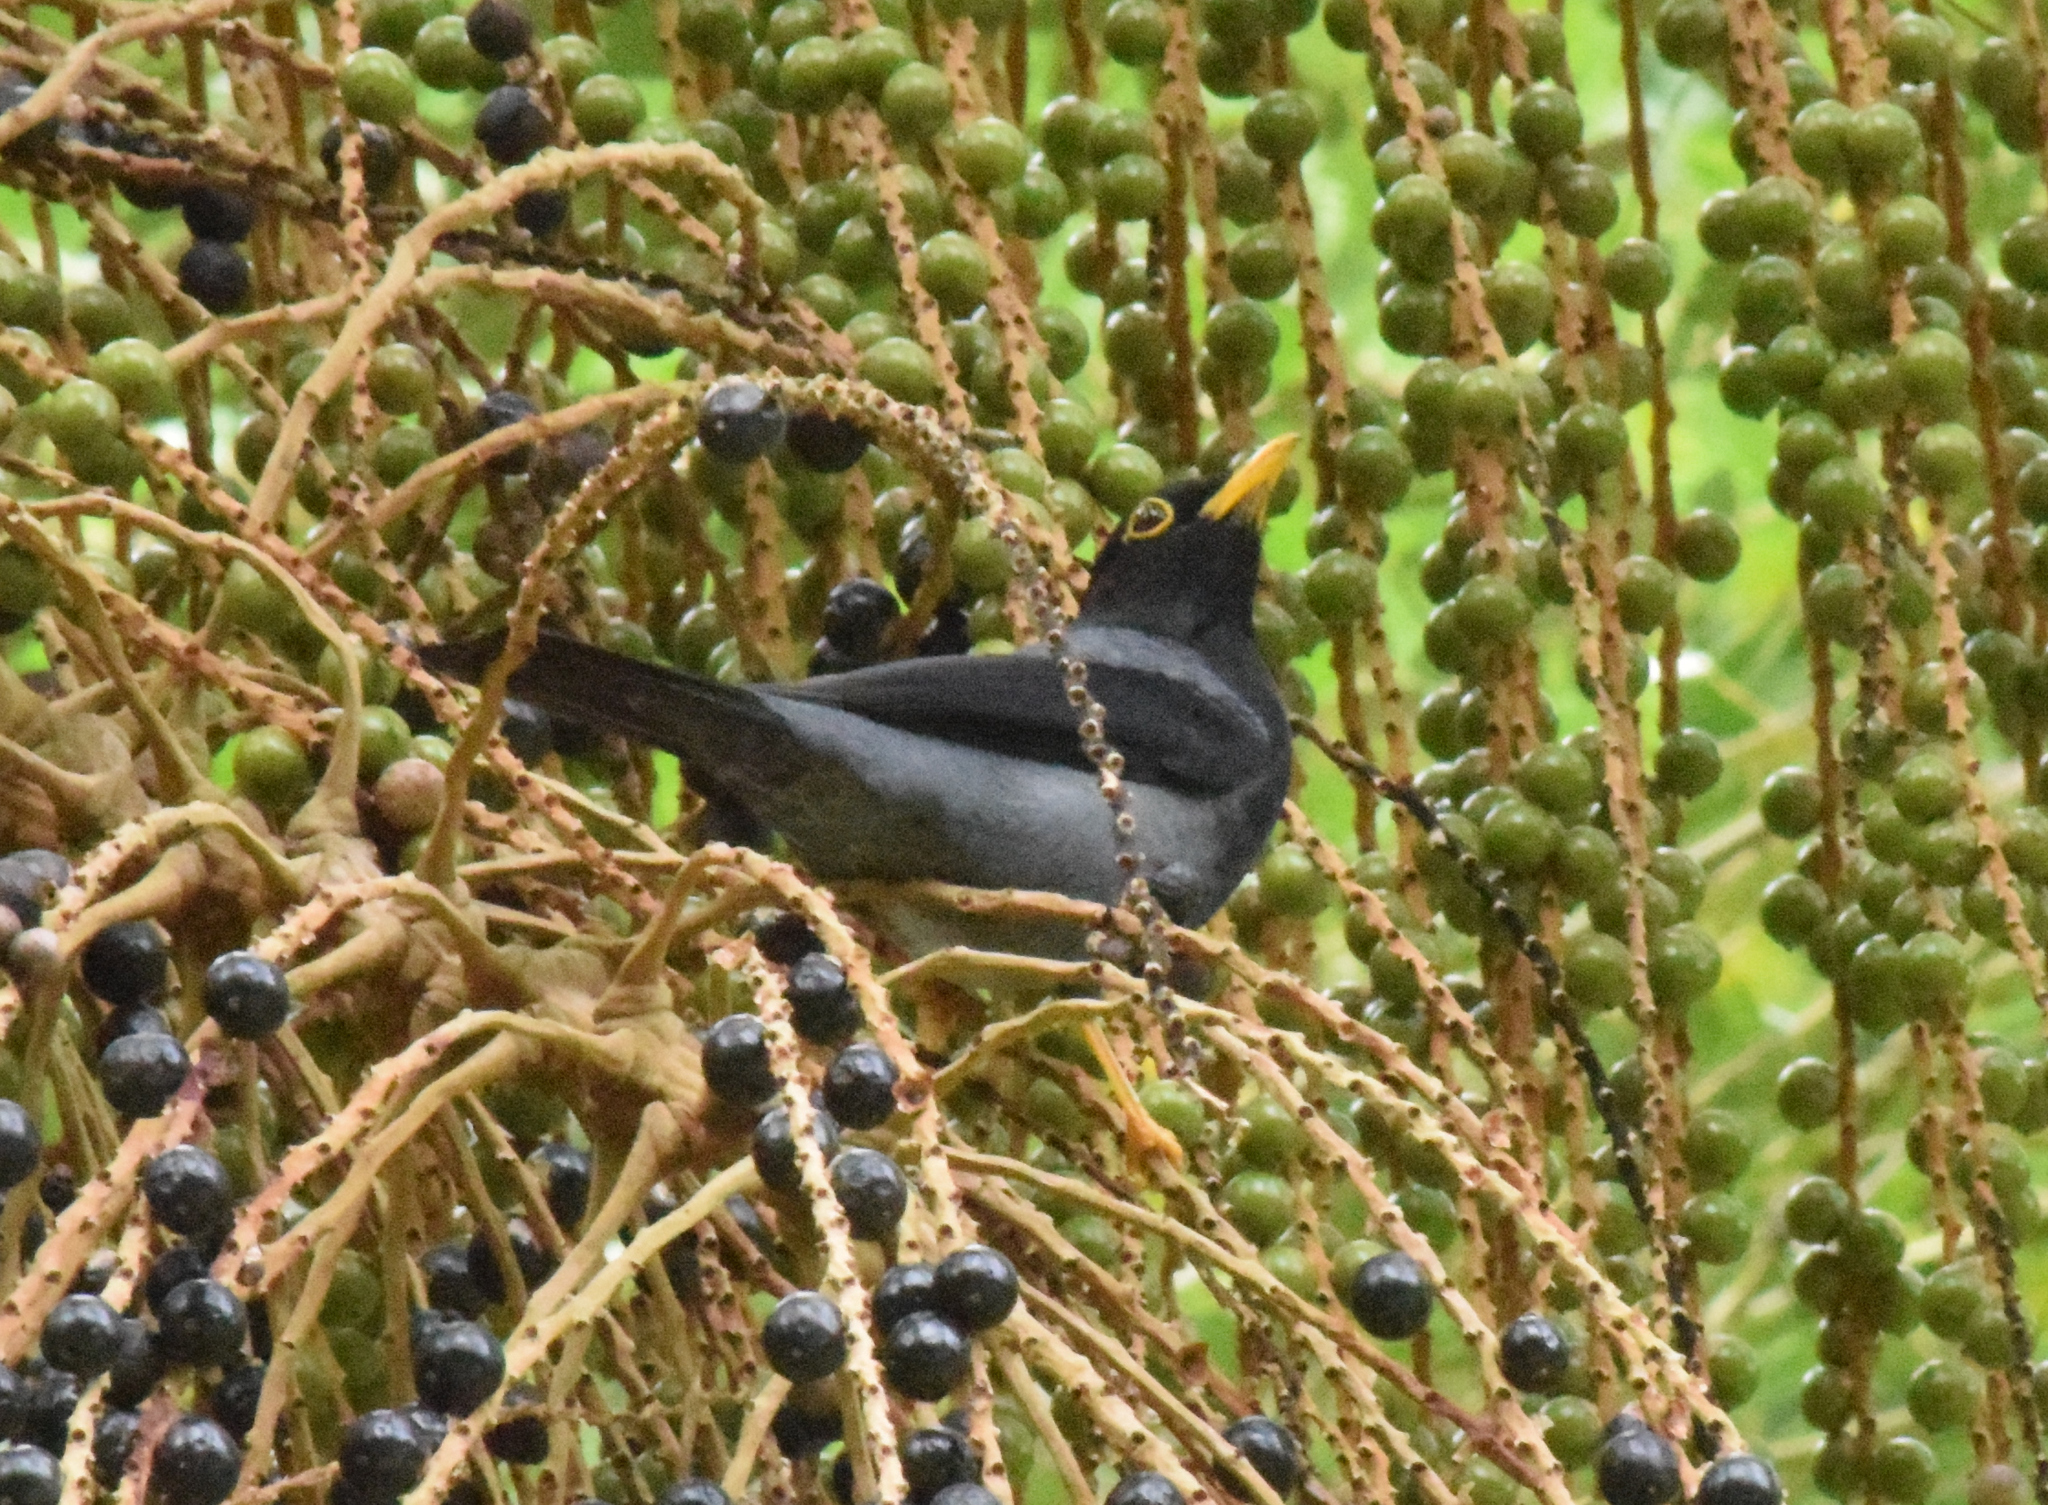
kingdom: Animalia
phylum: Chordata
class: Aves
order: Passeriformes
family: Turdidae
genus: Turdus
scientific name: Turdus flavipes
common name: Yellow-legged thrush
